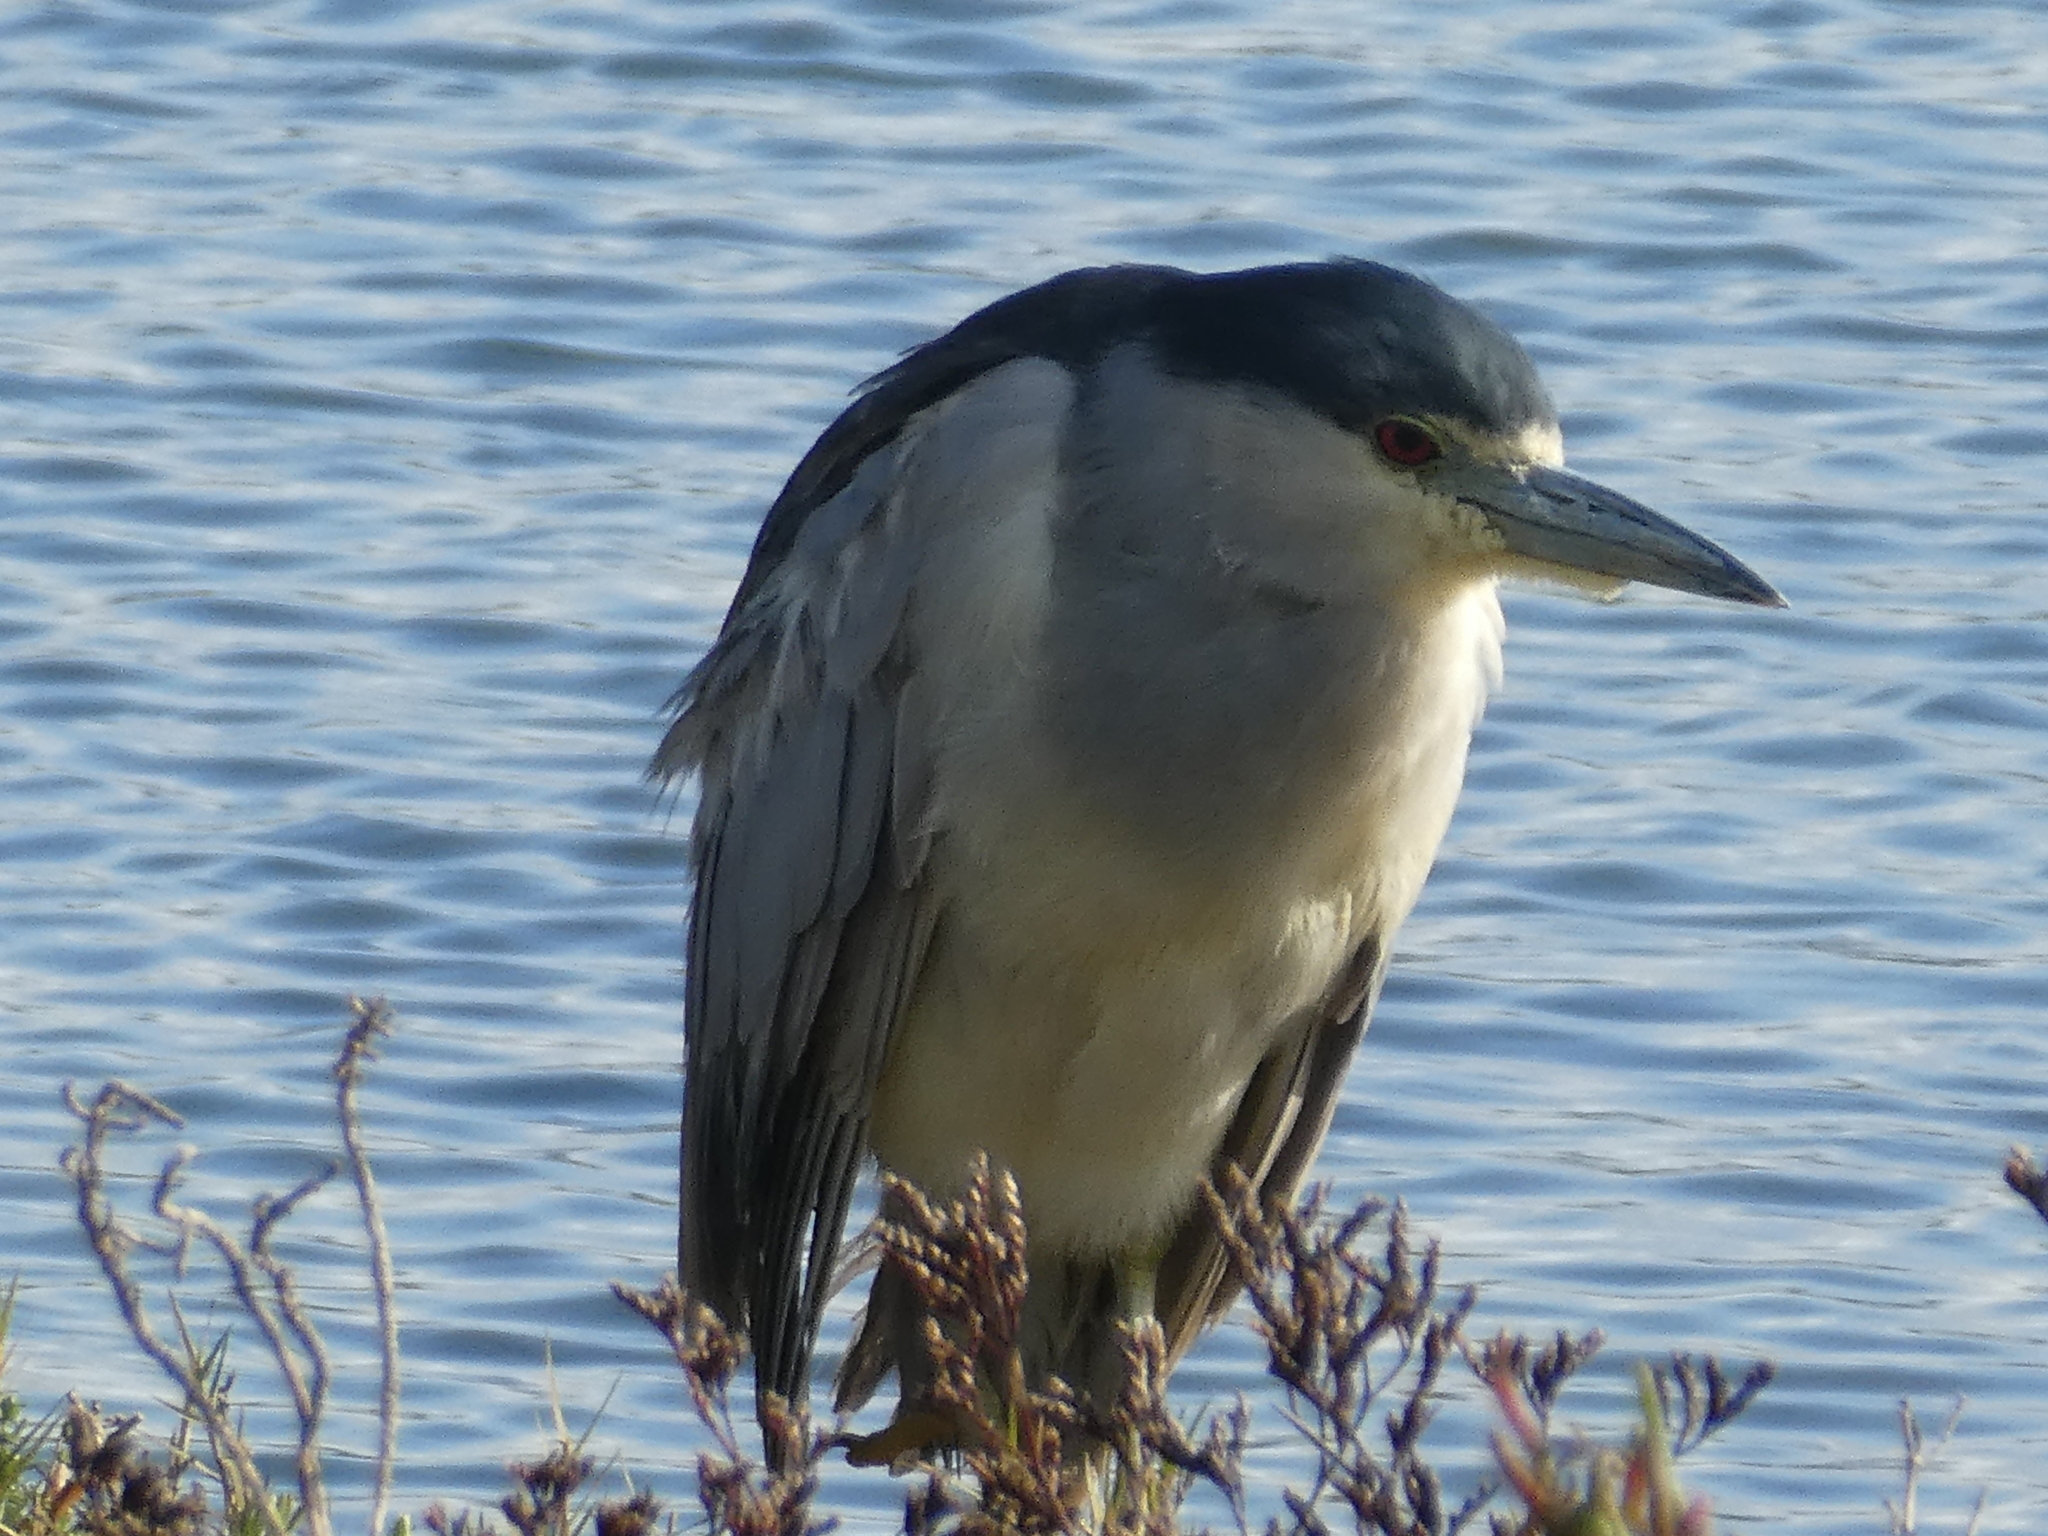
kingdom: Animalia
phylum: Chordata
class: Aves
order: Pelecaniformes
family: Ardeidae
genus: Nycticorax
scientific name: Nycticorax nycticorax
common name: Black-crowned night heron
